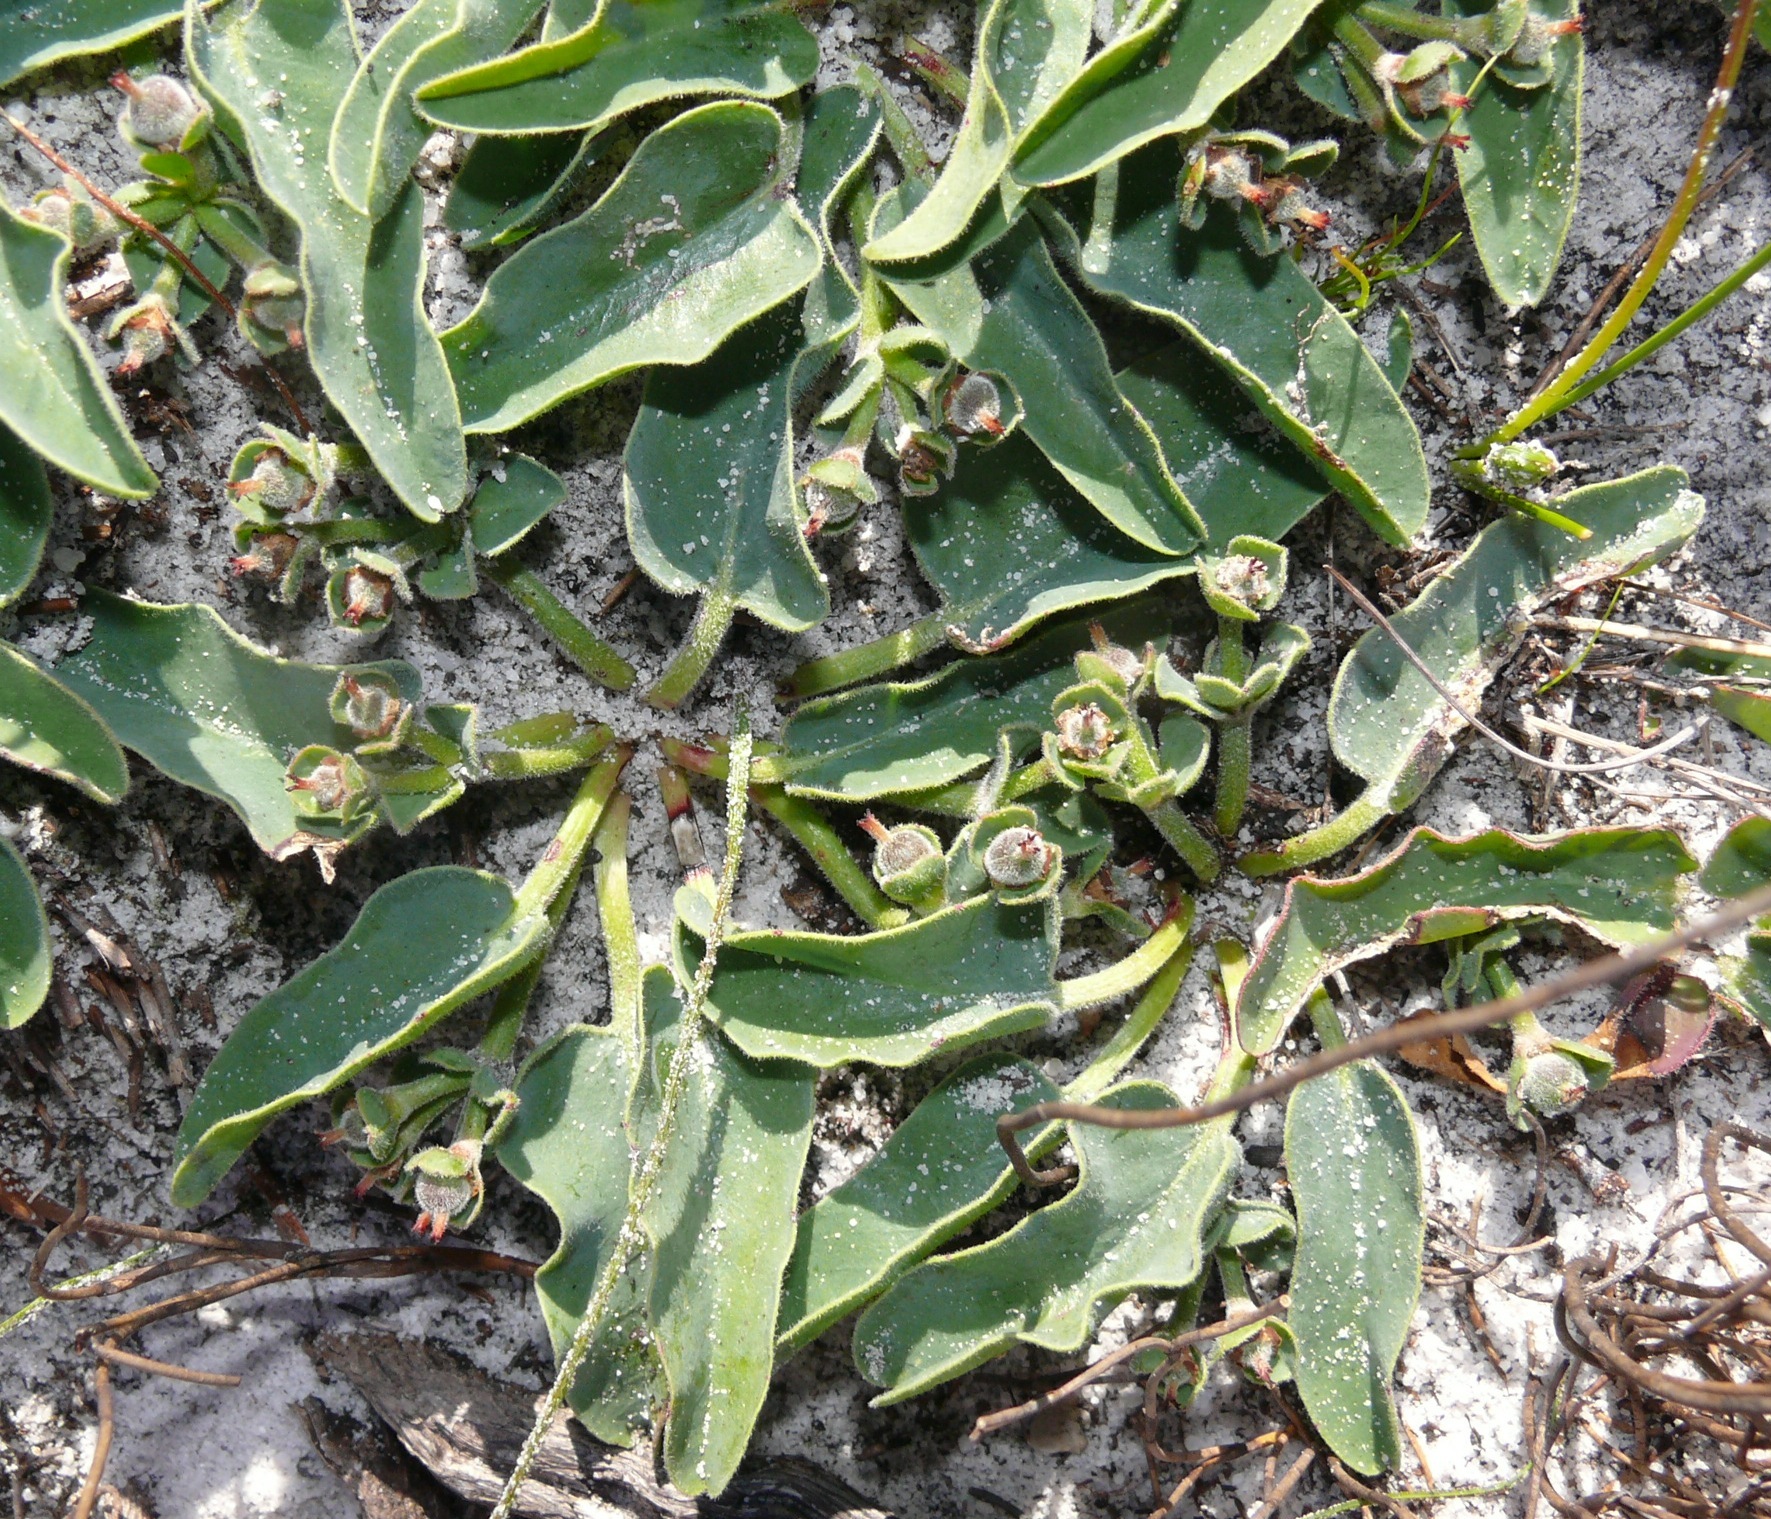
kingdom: Plantae
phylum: Tracheophyta
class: Magnoliopsida
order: Malpighiales
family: Euphorbiaceae
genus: Euphorbia
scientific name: Euphorbia tuberosa
